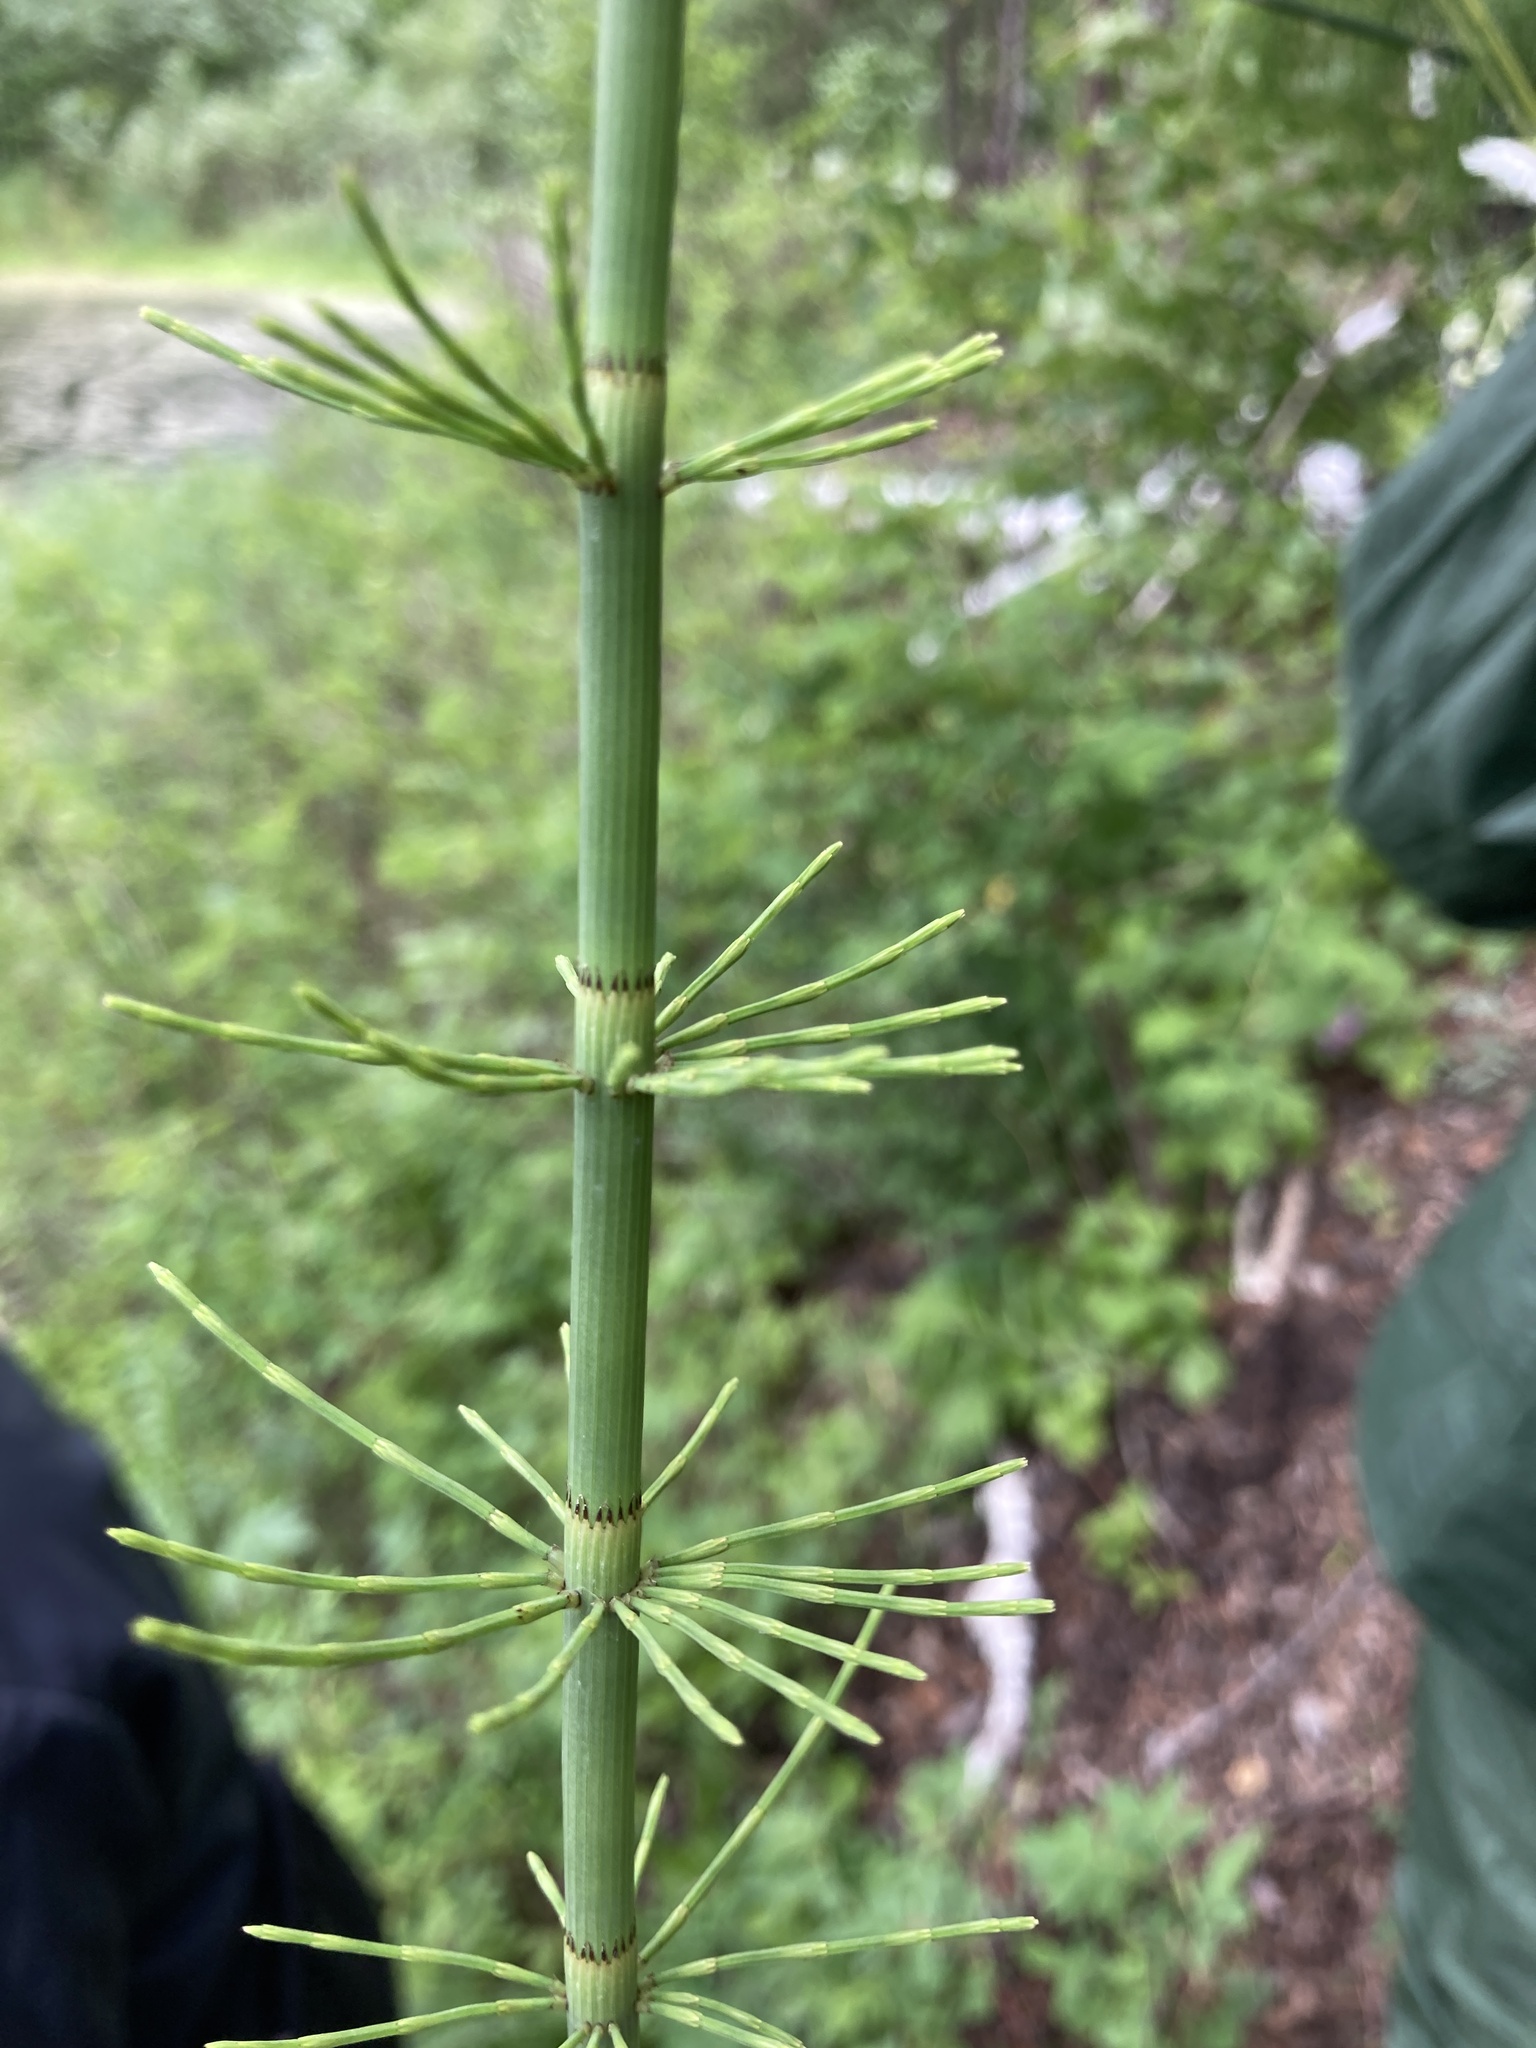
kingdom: Plantae
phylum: Tracheophyta
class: Polypodiopsida
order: Equisetales
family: Equisetaceae
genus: Equisetum
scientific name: Equisetum fluviatile
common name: Water horsetail
